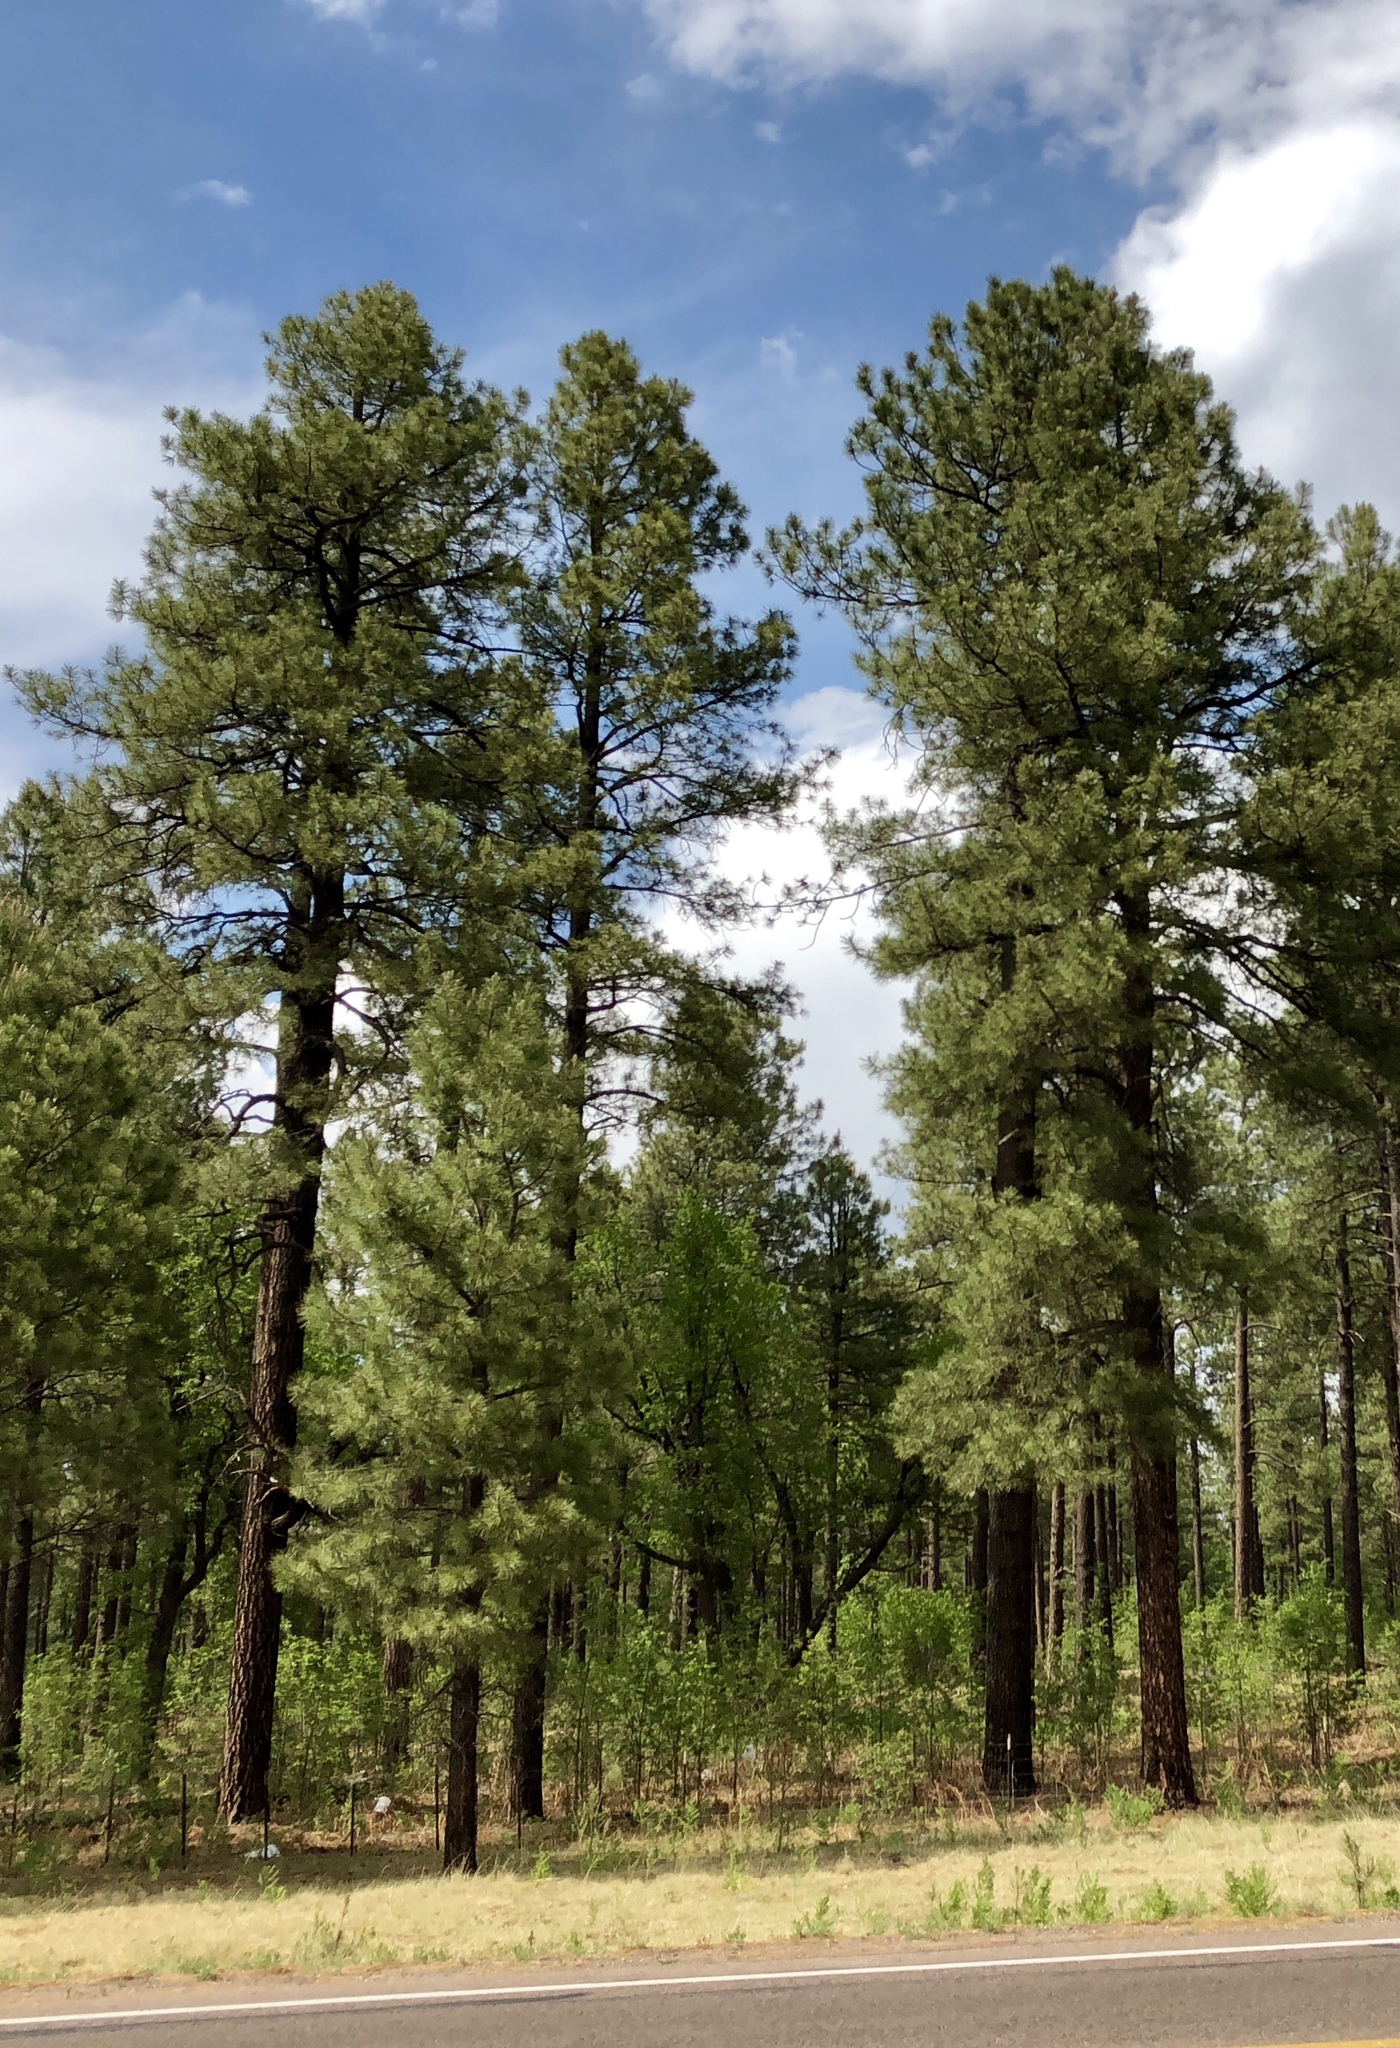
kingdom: Plantae
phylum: Tracheophyta
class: Pinopsida
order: Pinales
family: Pinaceae
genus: Pinus
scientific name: Pinus ponderosa
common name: Western yellow-pine
